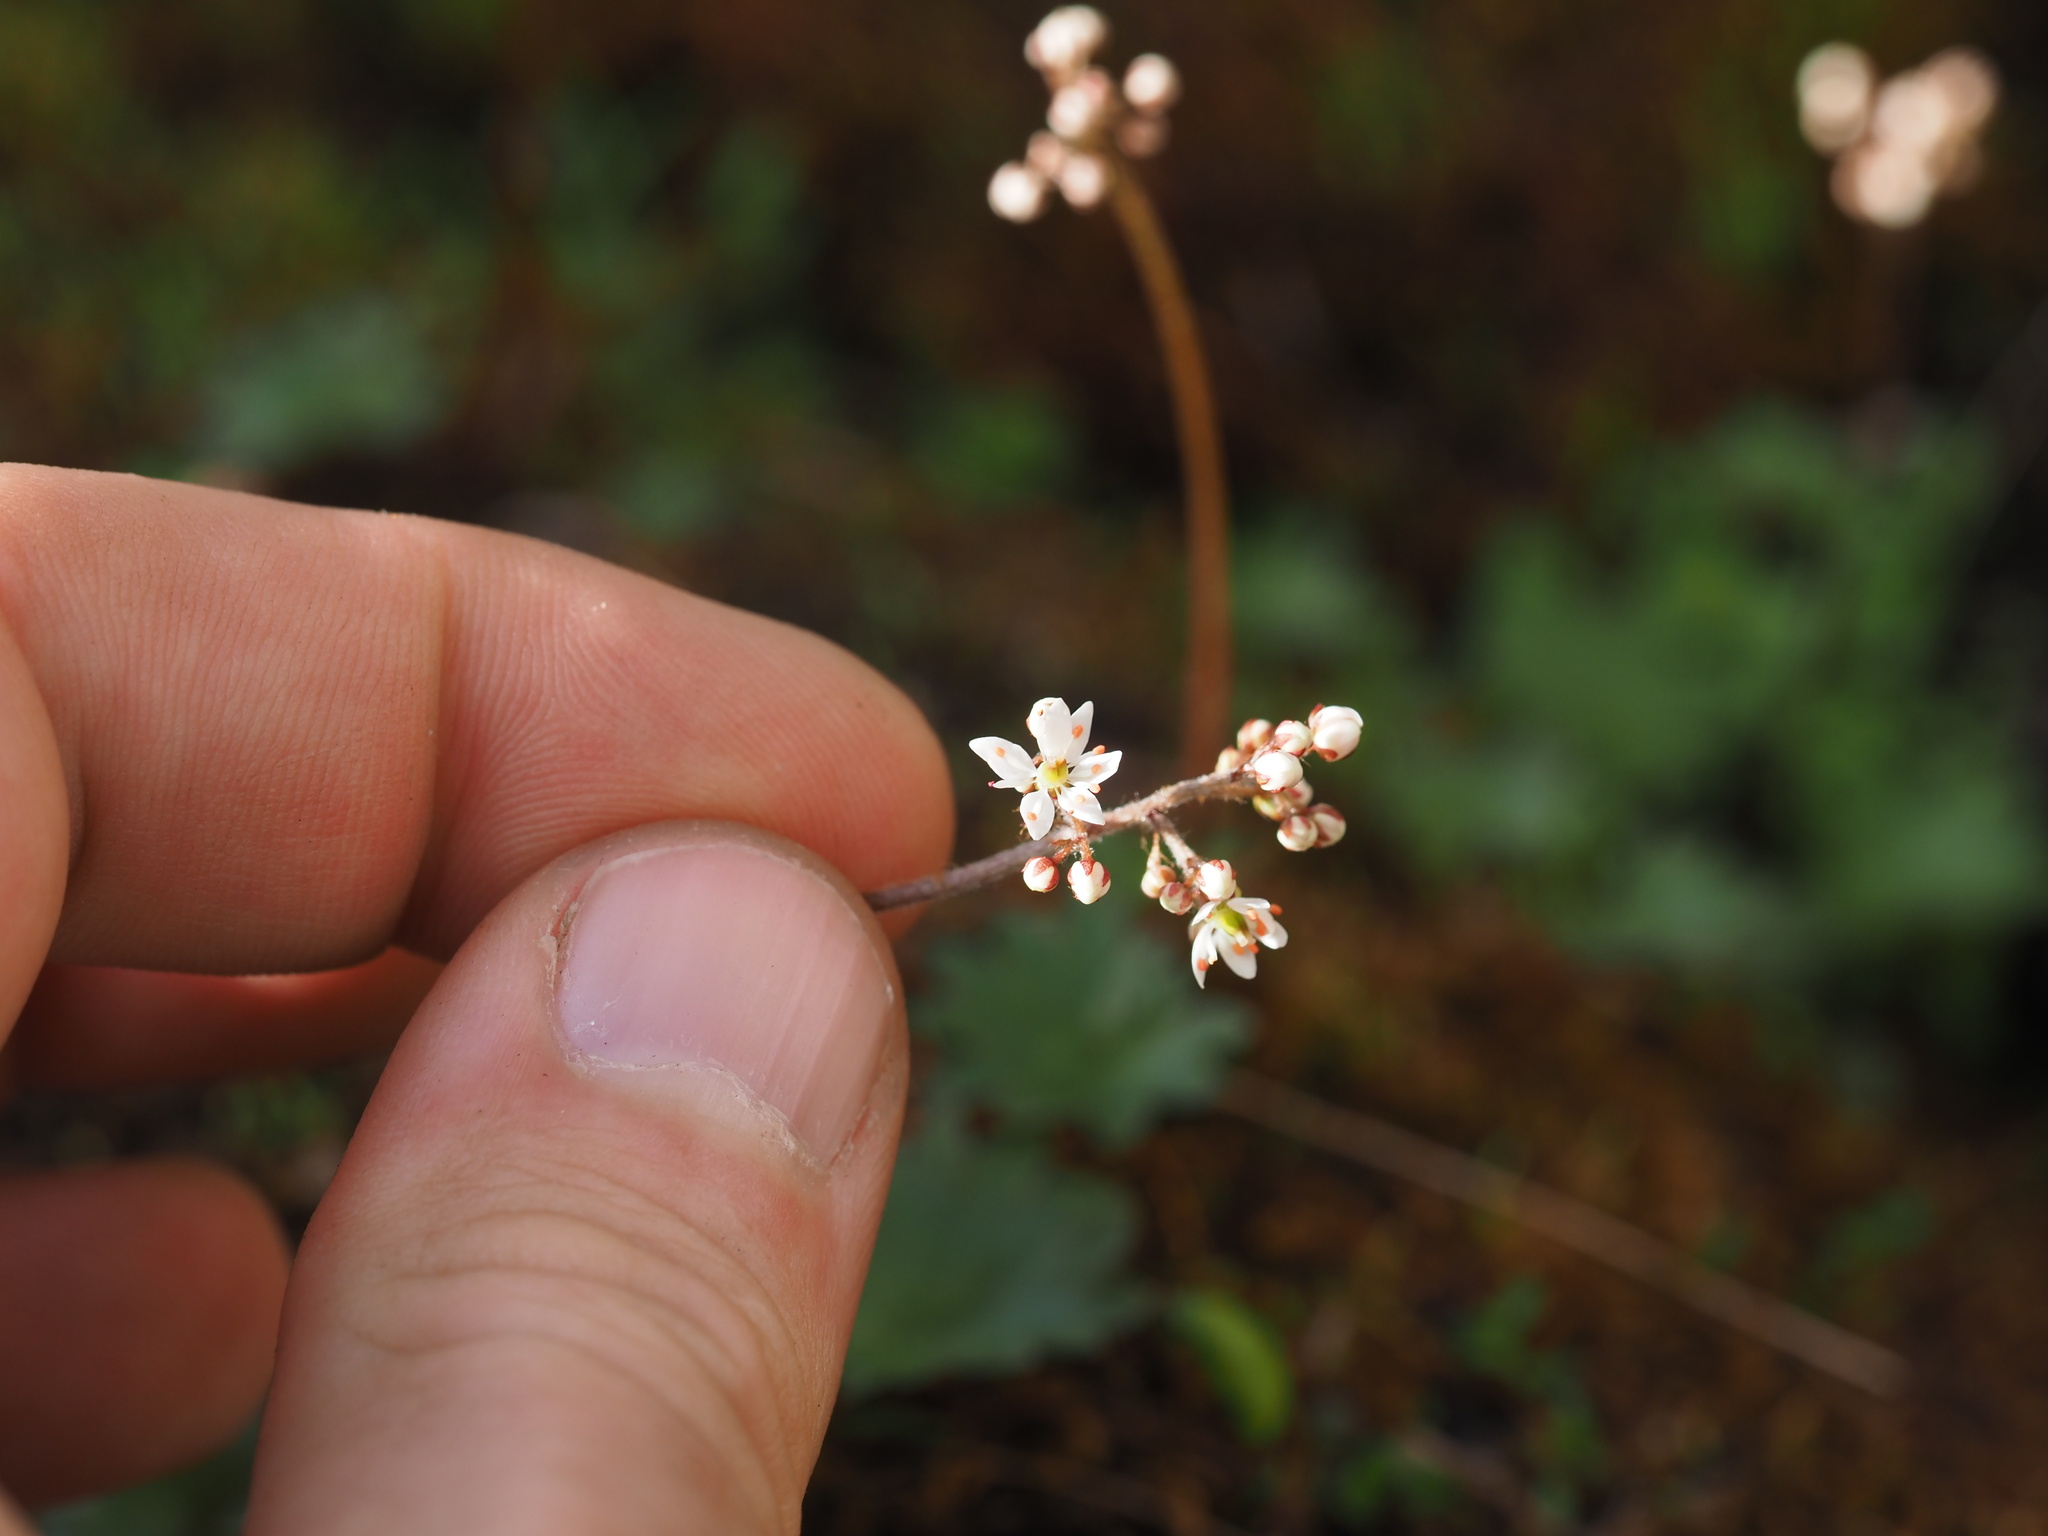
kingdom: Plantae
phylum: Tracheophyta
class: Magnoliopsida
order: Saxifragales
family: Saxifragaceae
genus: Micranthes
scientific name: Micranthes nelsoniana
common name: Nelson's saxifrage
